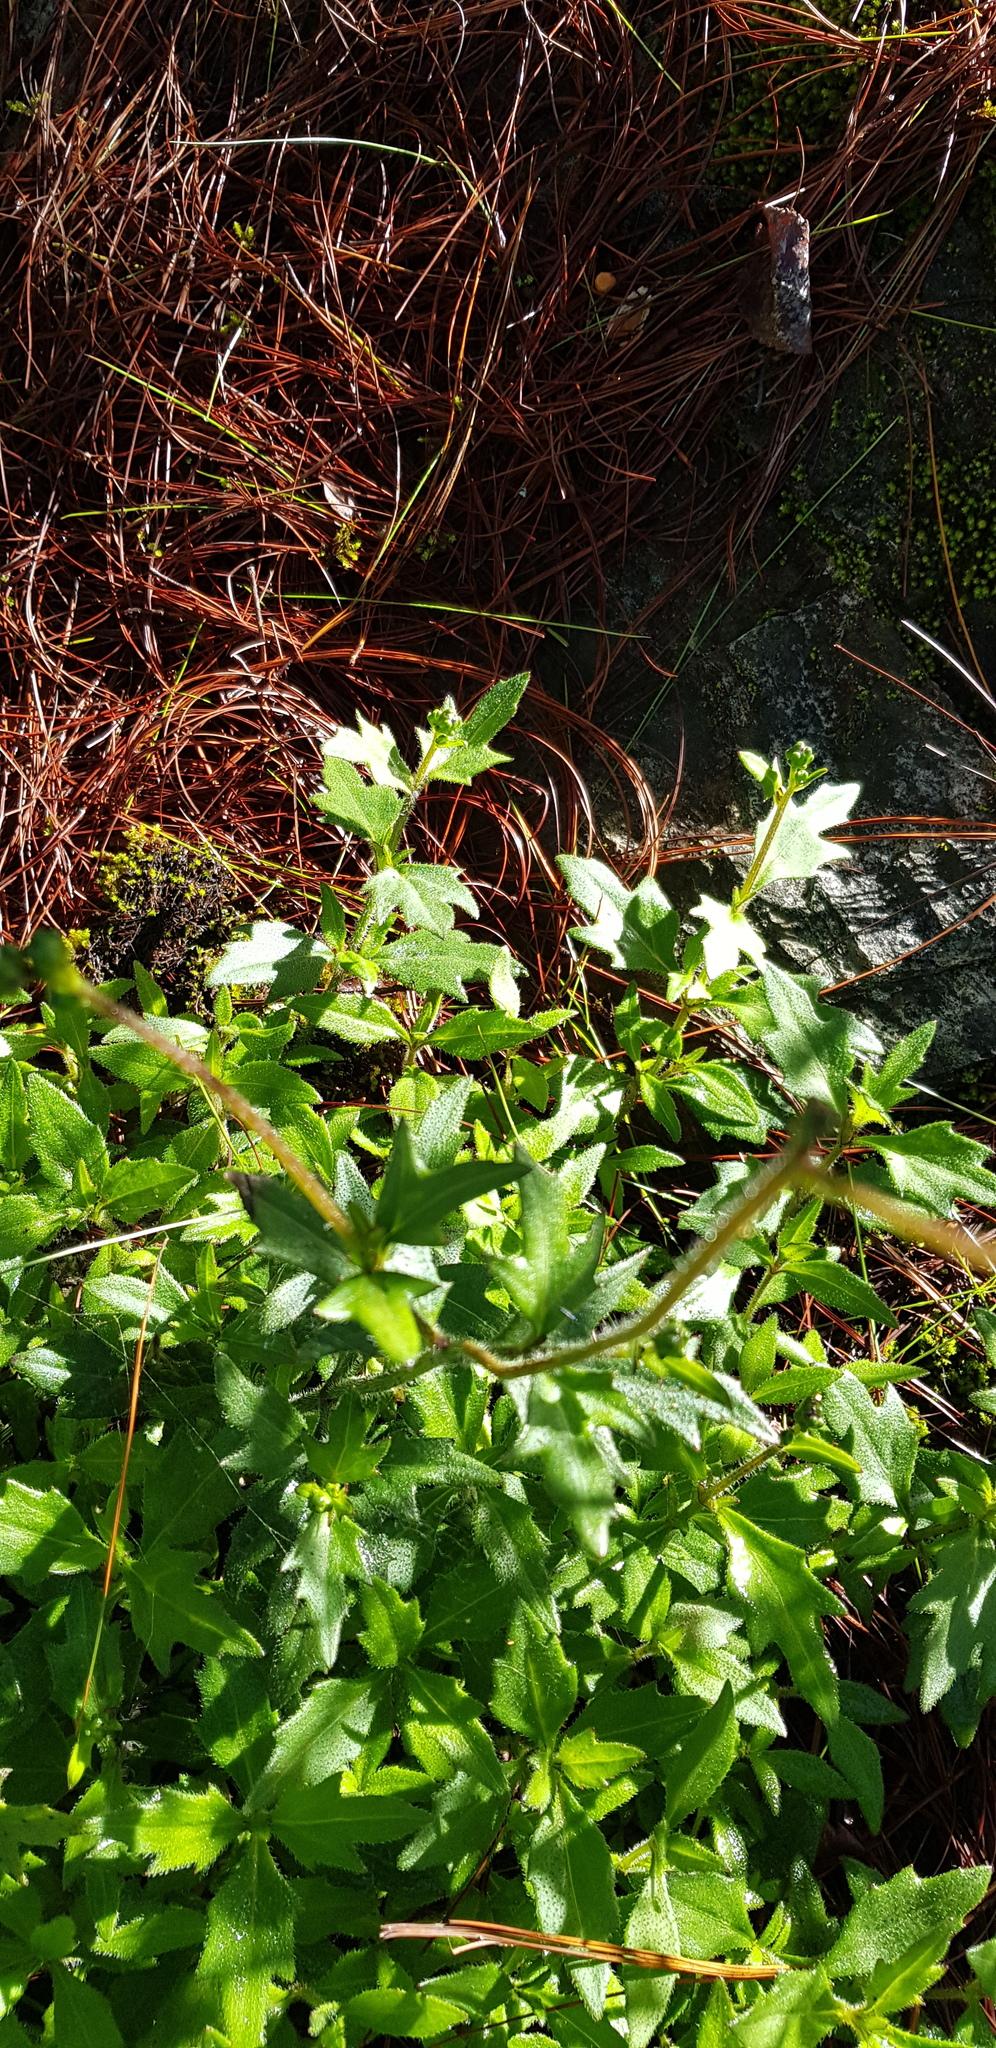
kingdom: Plantae
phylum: Tracheophyta
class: Magnoliopsida
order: Asterales
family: Asteraceae
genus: Tridax
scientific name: Tridax brachylepis
